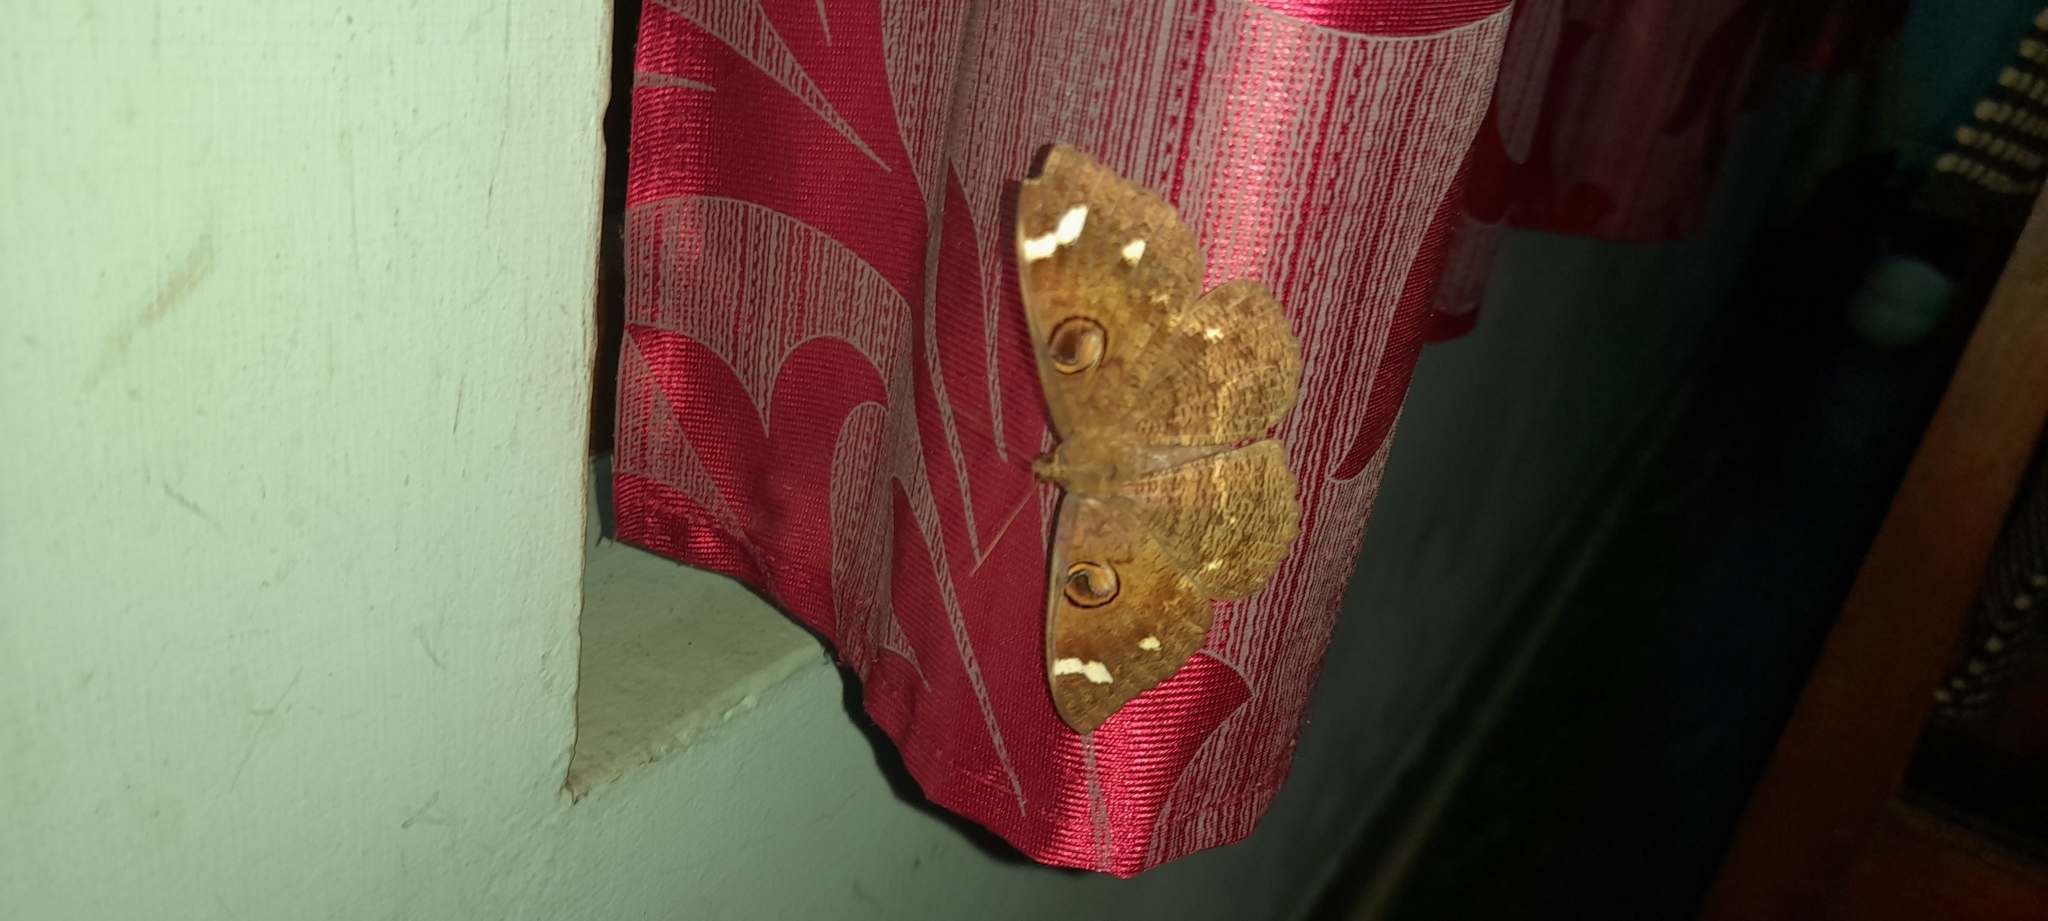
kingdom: Animalia
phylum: Arthropoda
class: Insecta
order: Lepidoptera
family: Erebidae
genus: Erebus
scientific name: Erebus hieroglyphica
